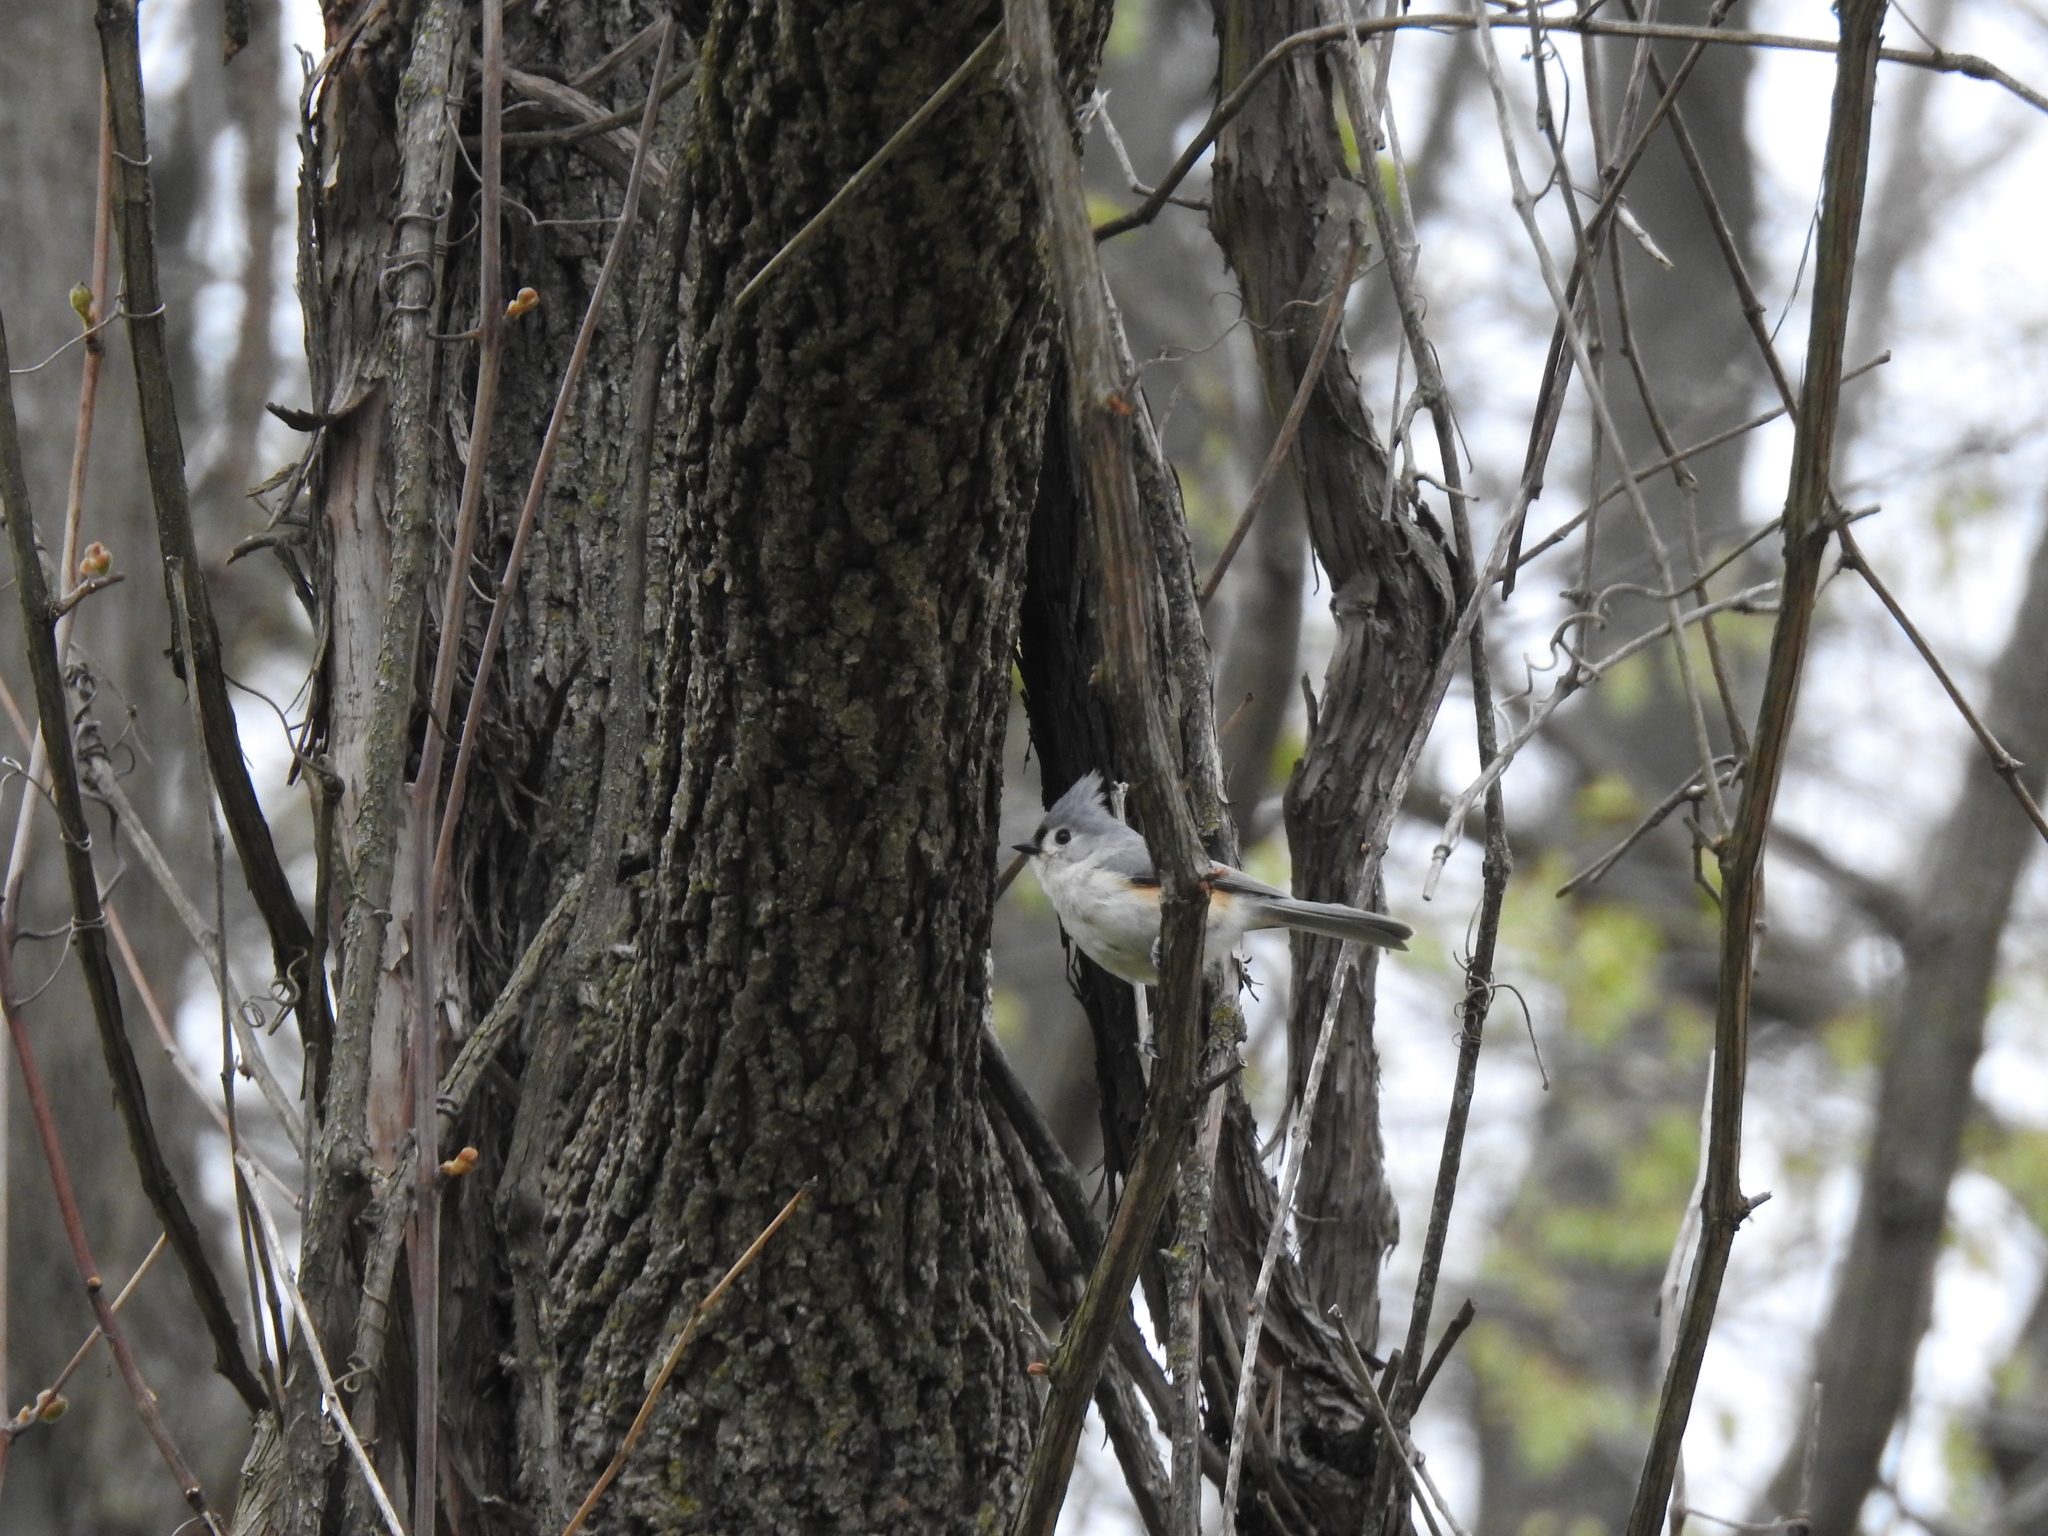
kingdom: Animalia
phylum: Chordata
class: Aves
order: Passeriformes
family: Paridae
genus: Baeolophus
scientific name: Baeolophus bicolor
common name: Tufted titmouse
